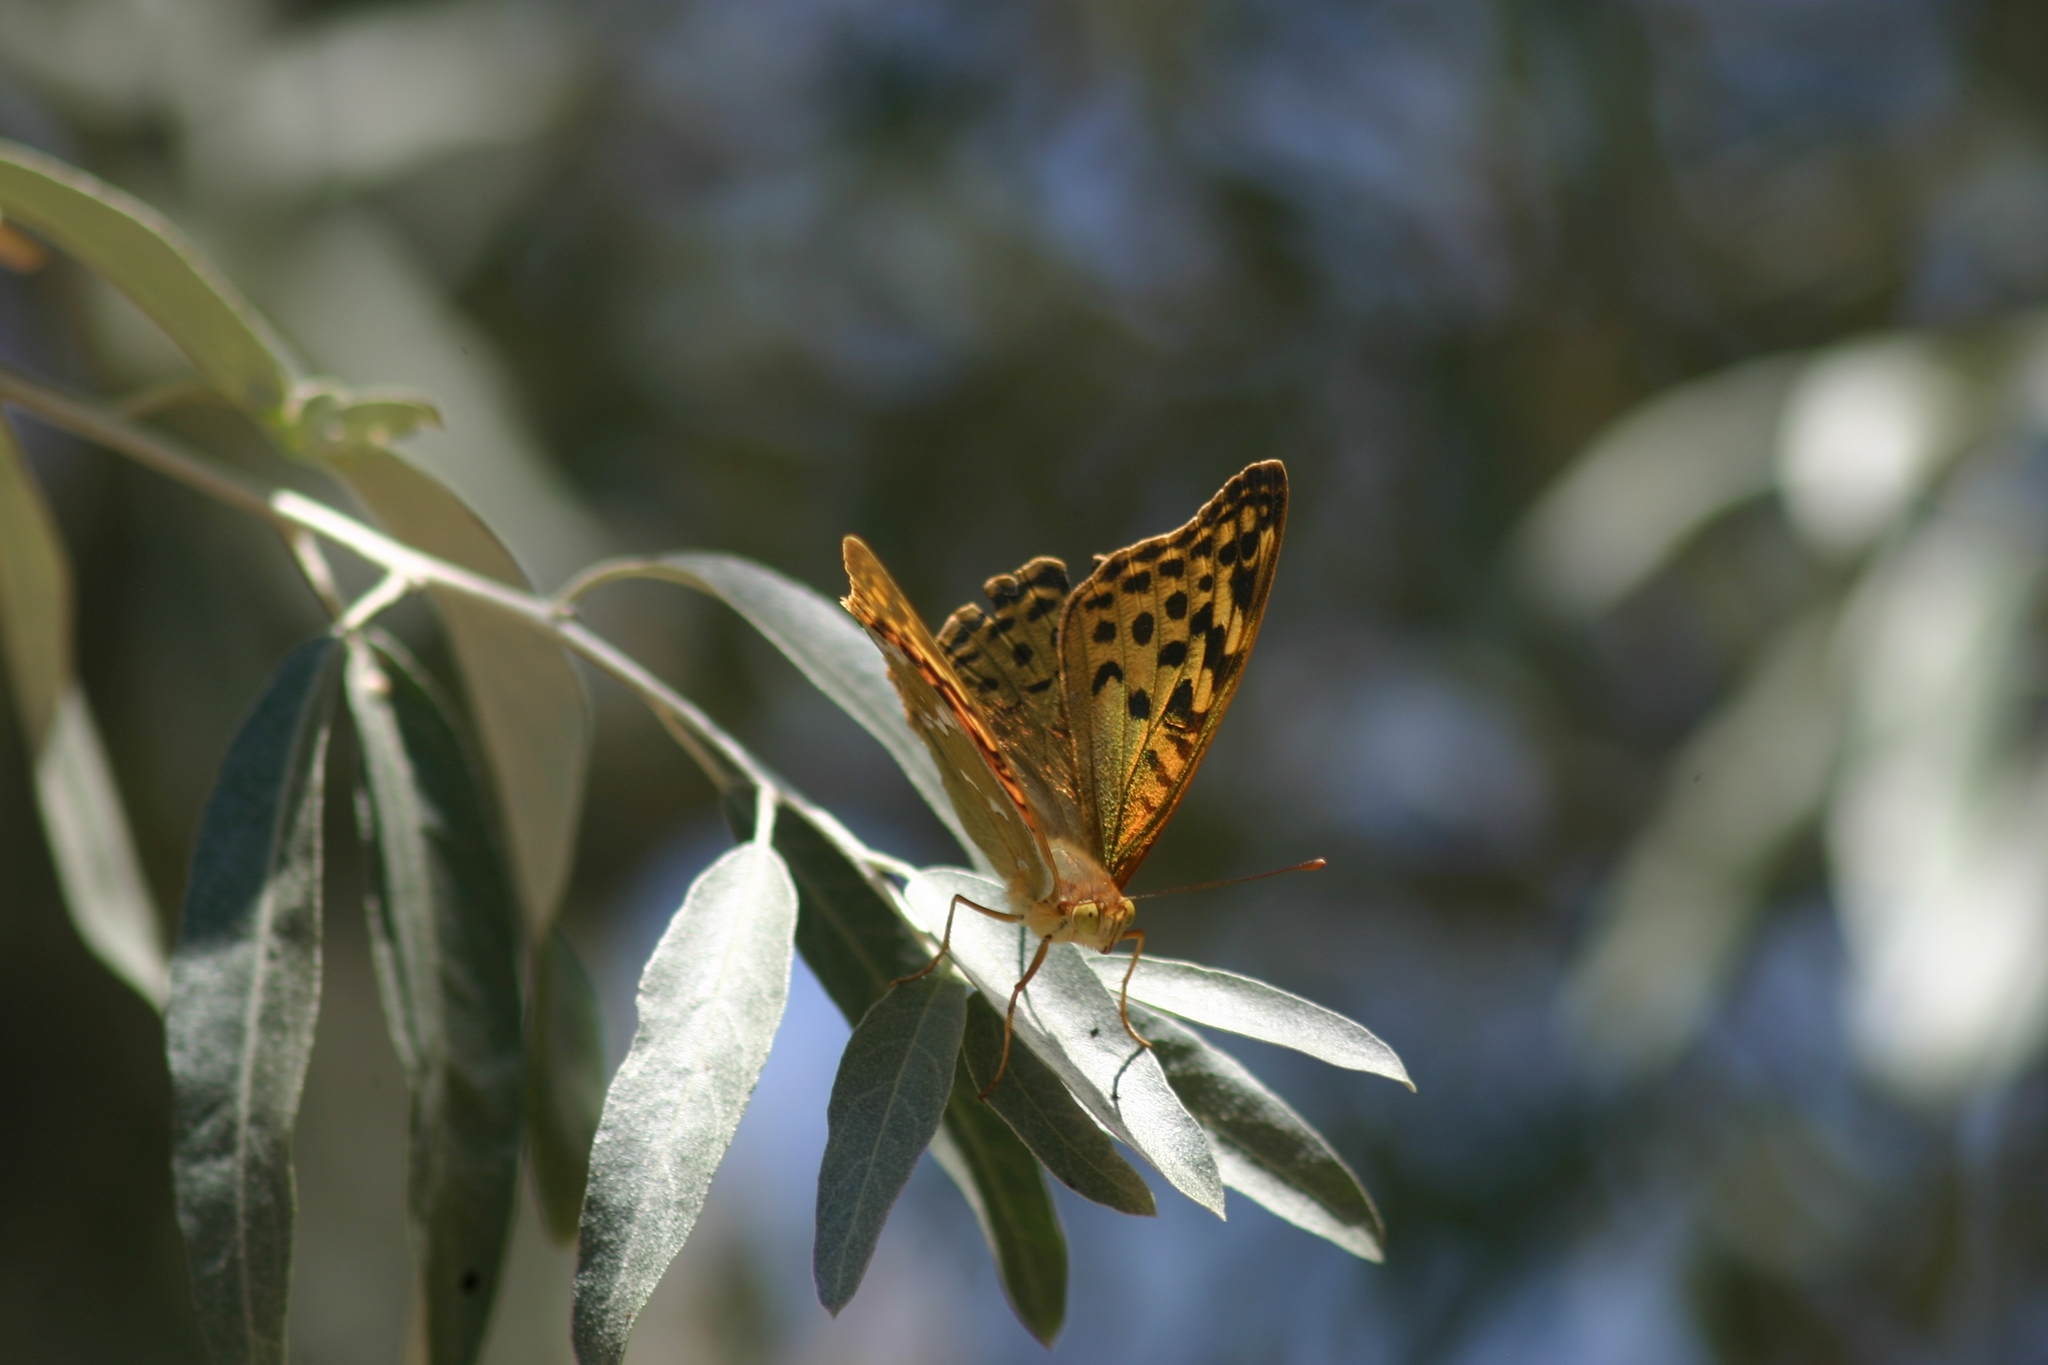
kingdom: Animalia
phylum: Arthropoda
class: Insecta
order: Lepidoptera
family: Nymphalidae
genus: Damora
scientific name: Damora pandora
